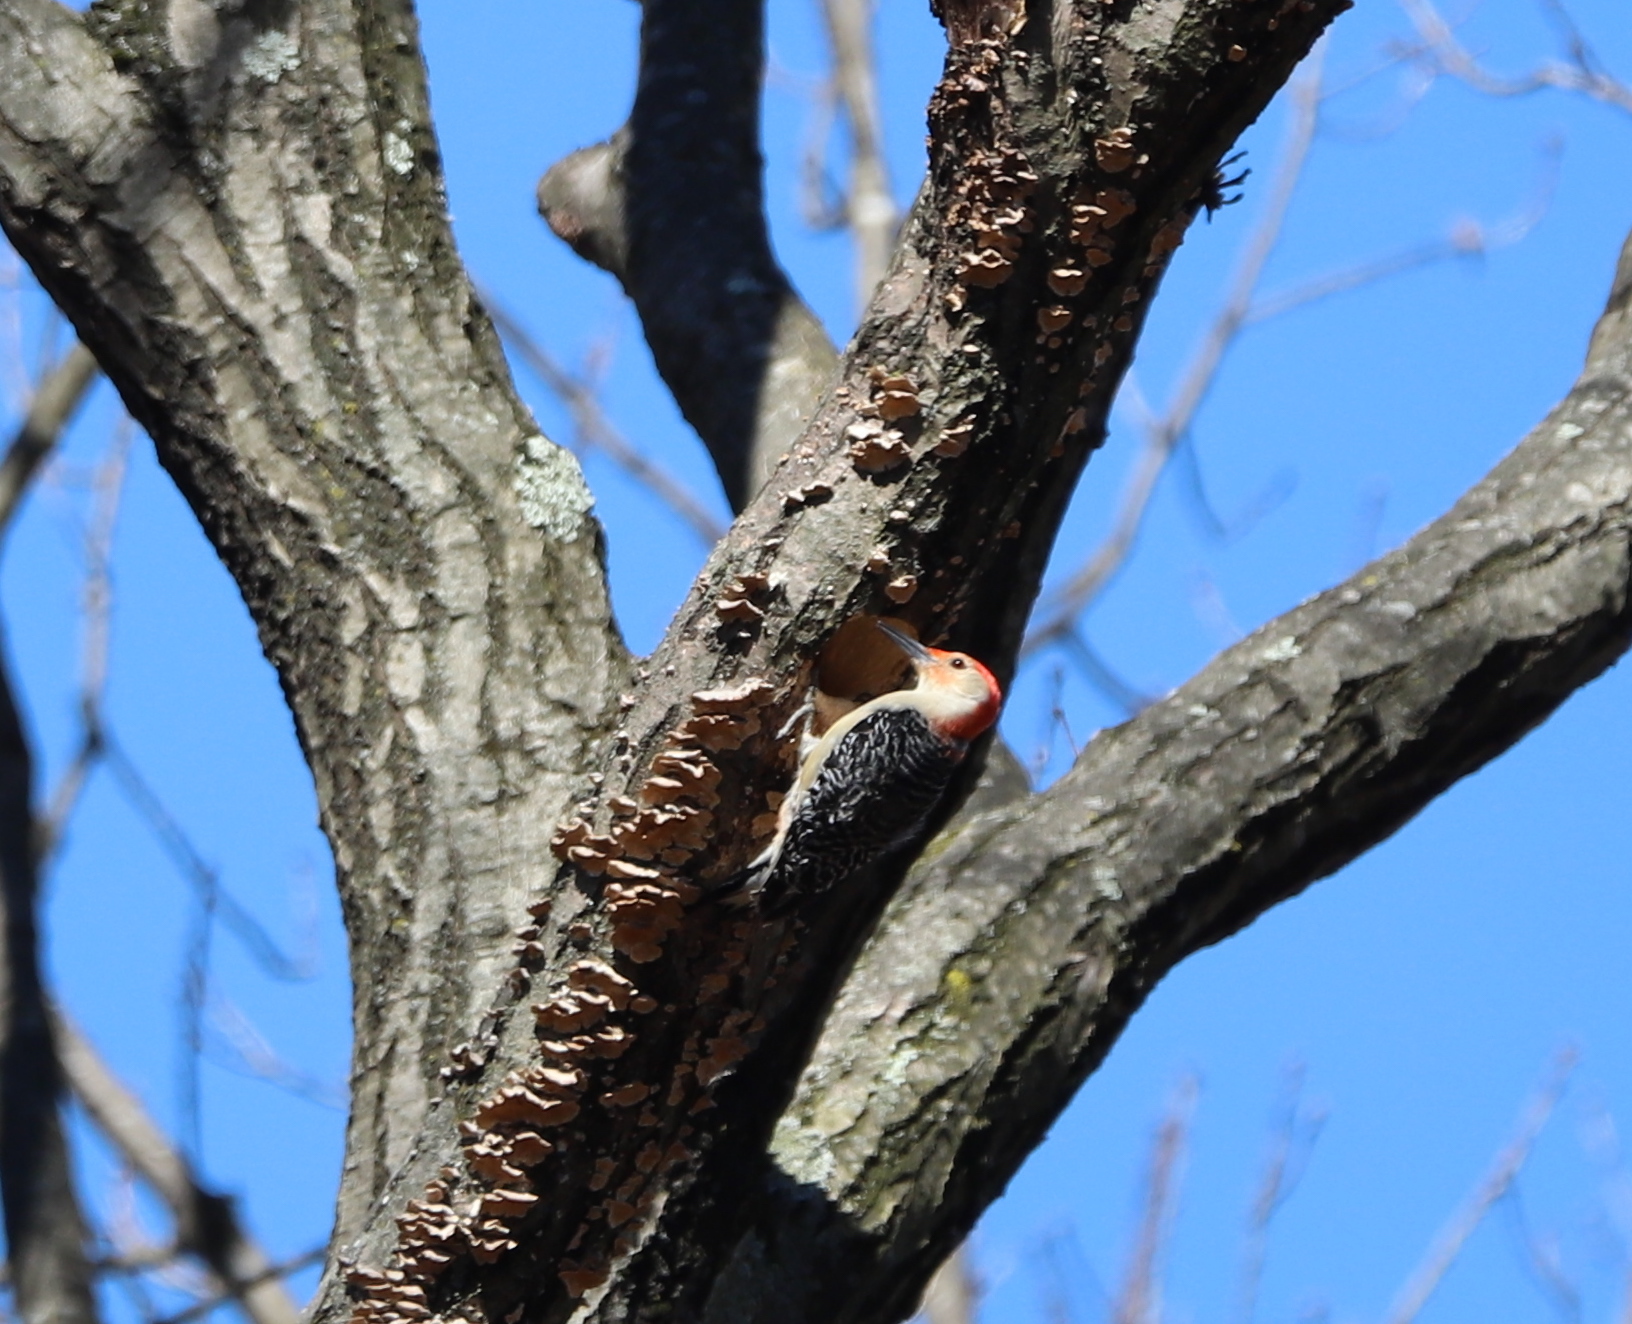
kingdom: Animalia
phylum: Chordata
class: Aves
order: Piciformes
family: Picidae
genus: Melanerpes
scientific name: Melanerpes carolinus
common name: Red-bellied woodpecker
